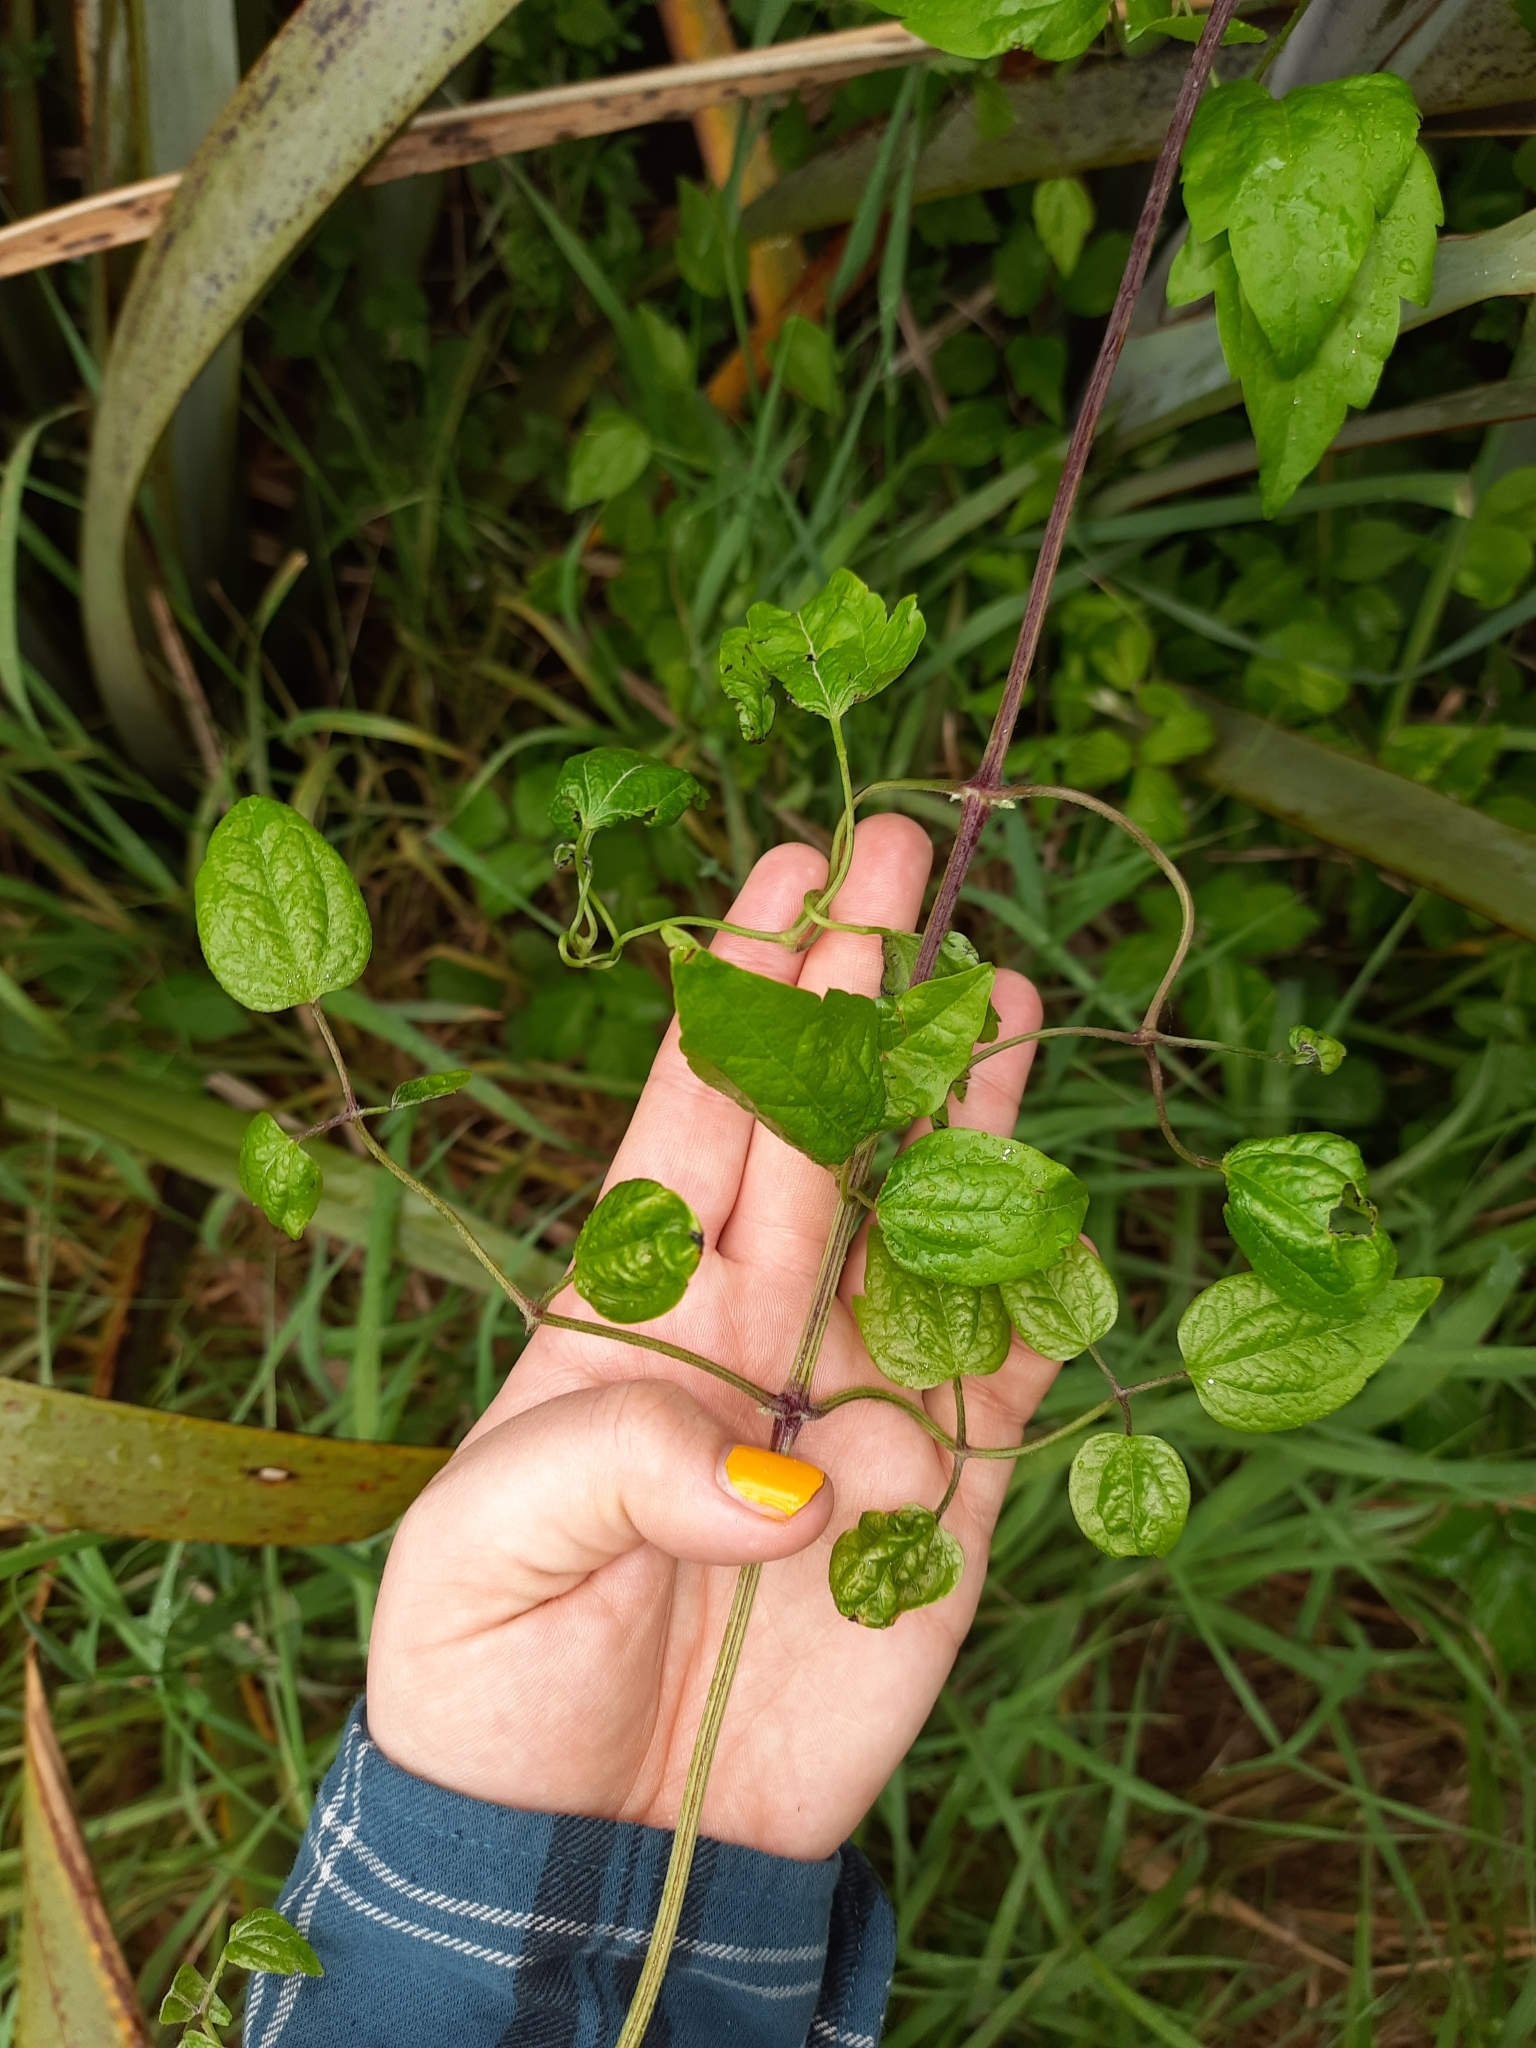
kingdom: Plantae
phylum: Tracheophyta
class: Magnoliopsida
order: Ranunculales
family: Ranunculaceae
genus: Clematis
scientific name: Clematis vitalba
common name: Evergreen clematis
